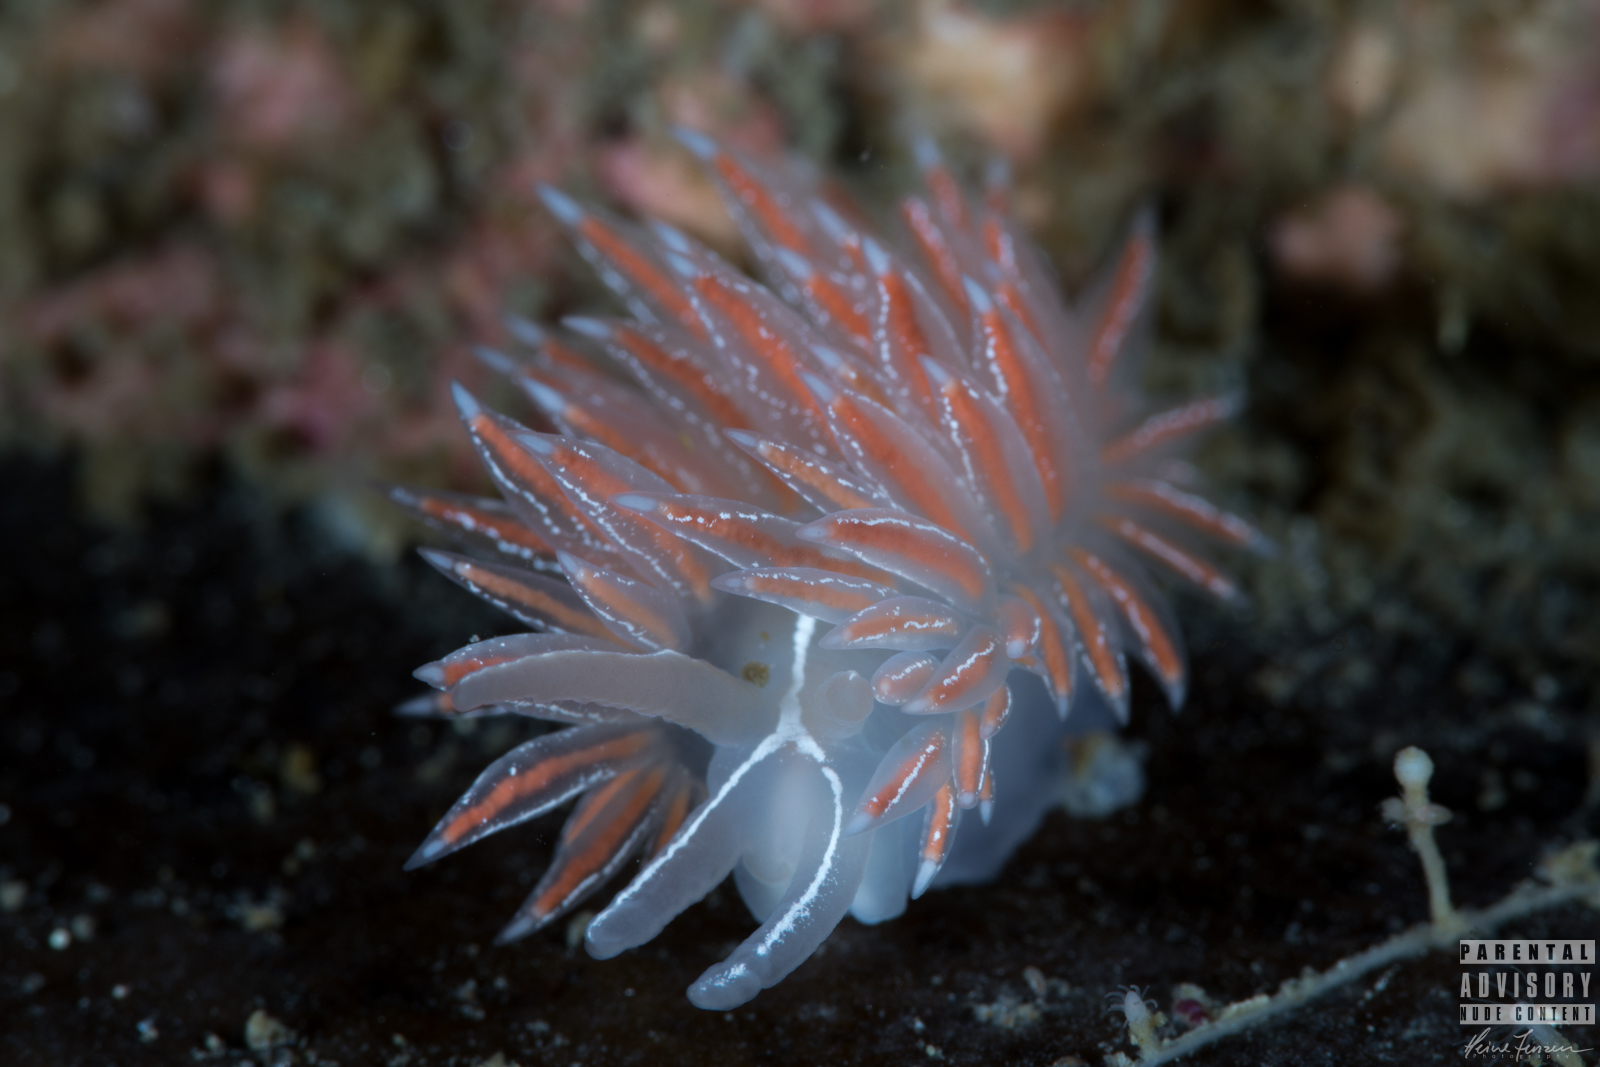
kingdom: Animalia
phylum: Mollusca
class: Gastropoda
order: Nudibranchia
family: Coryphellidae
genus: Coryphella
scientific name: Coryphella chriskaugei
